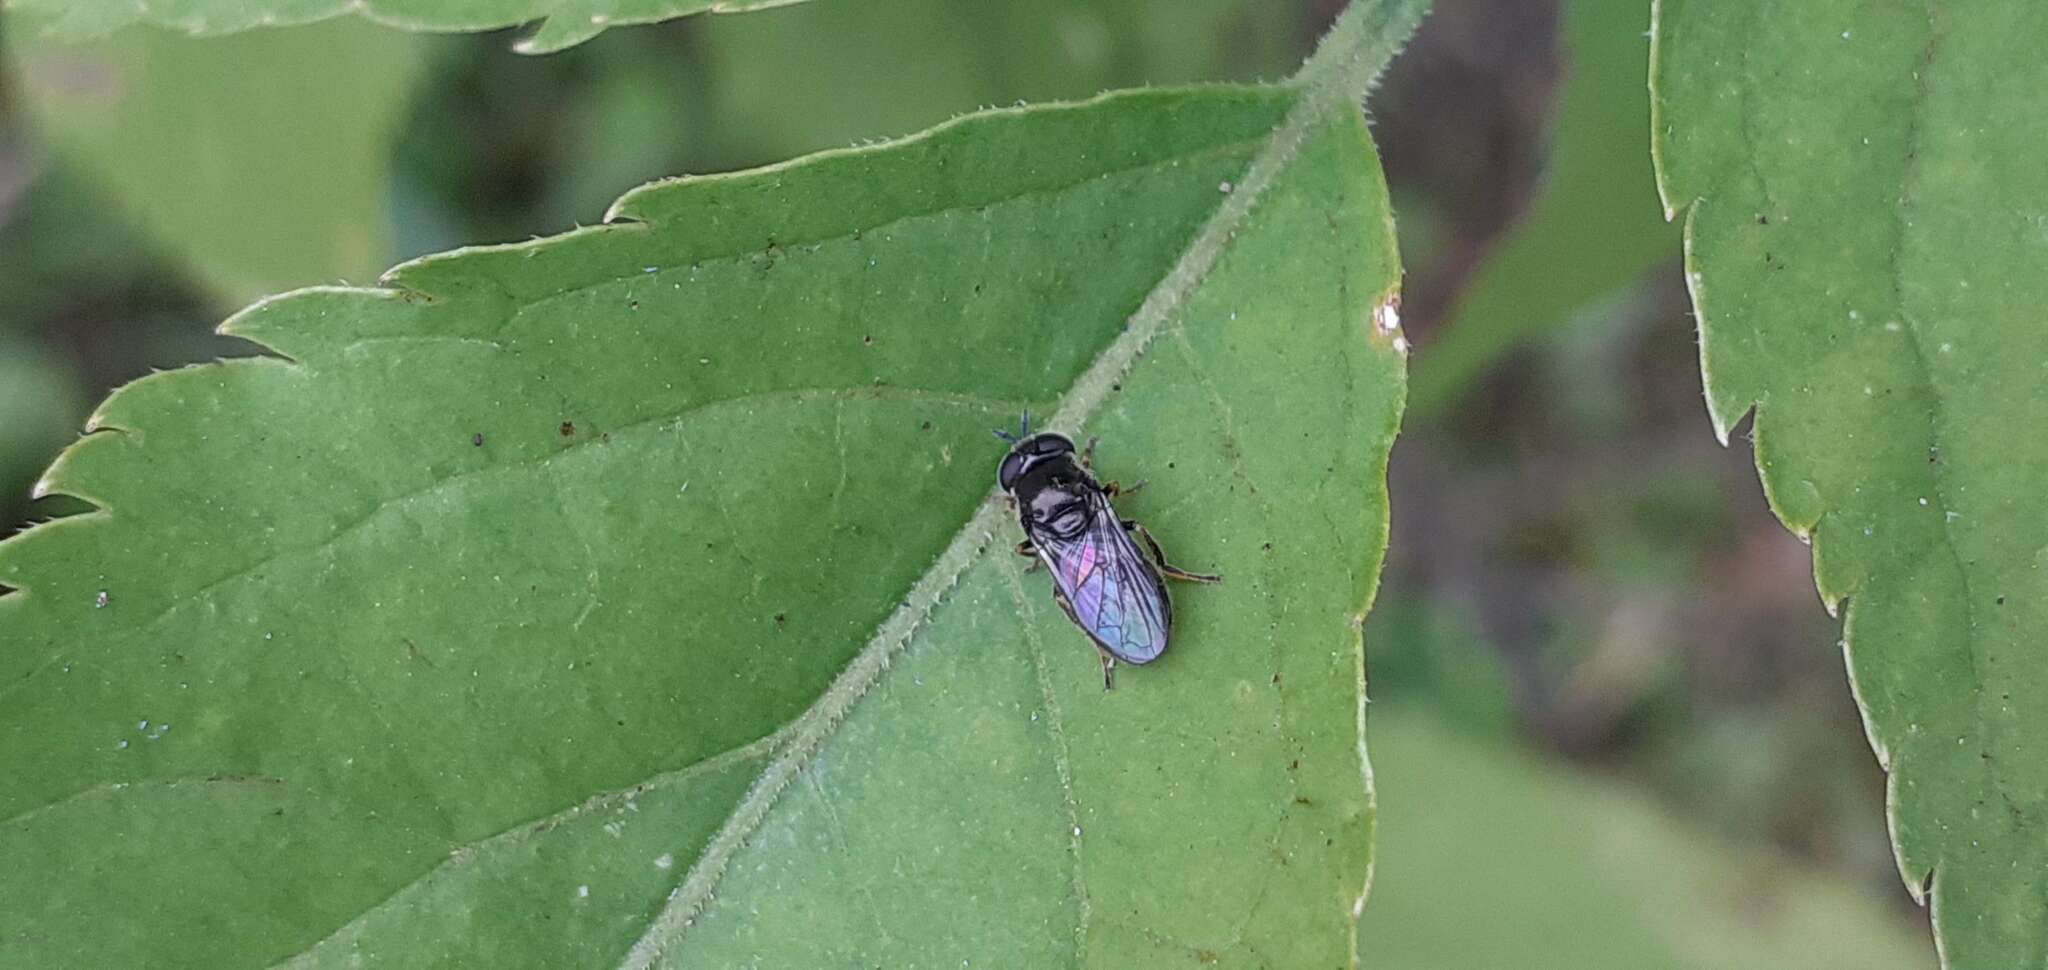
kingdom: Animalia
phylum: Arthropoda
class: Insecta
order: Diptera
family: Syrphidae
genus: Pipizella
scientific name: Pipizella
